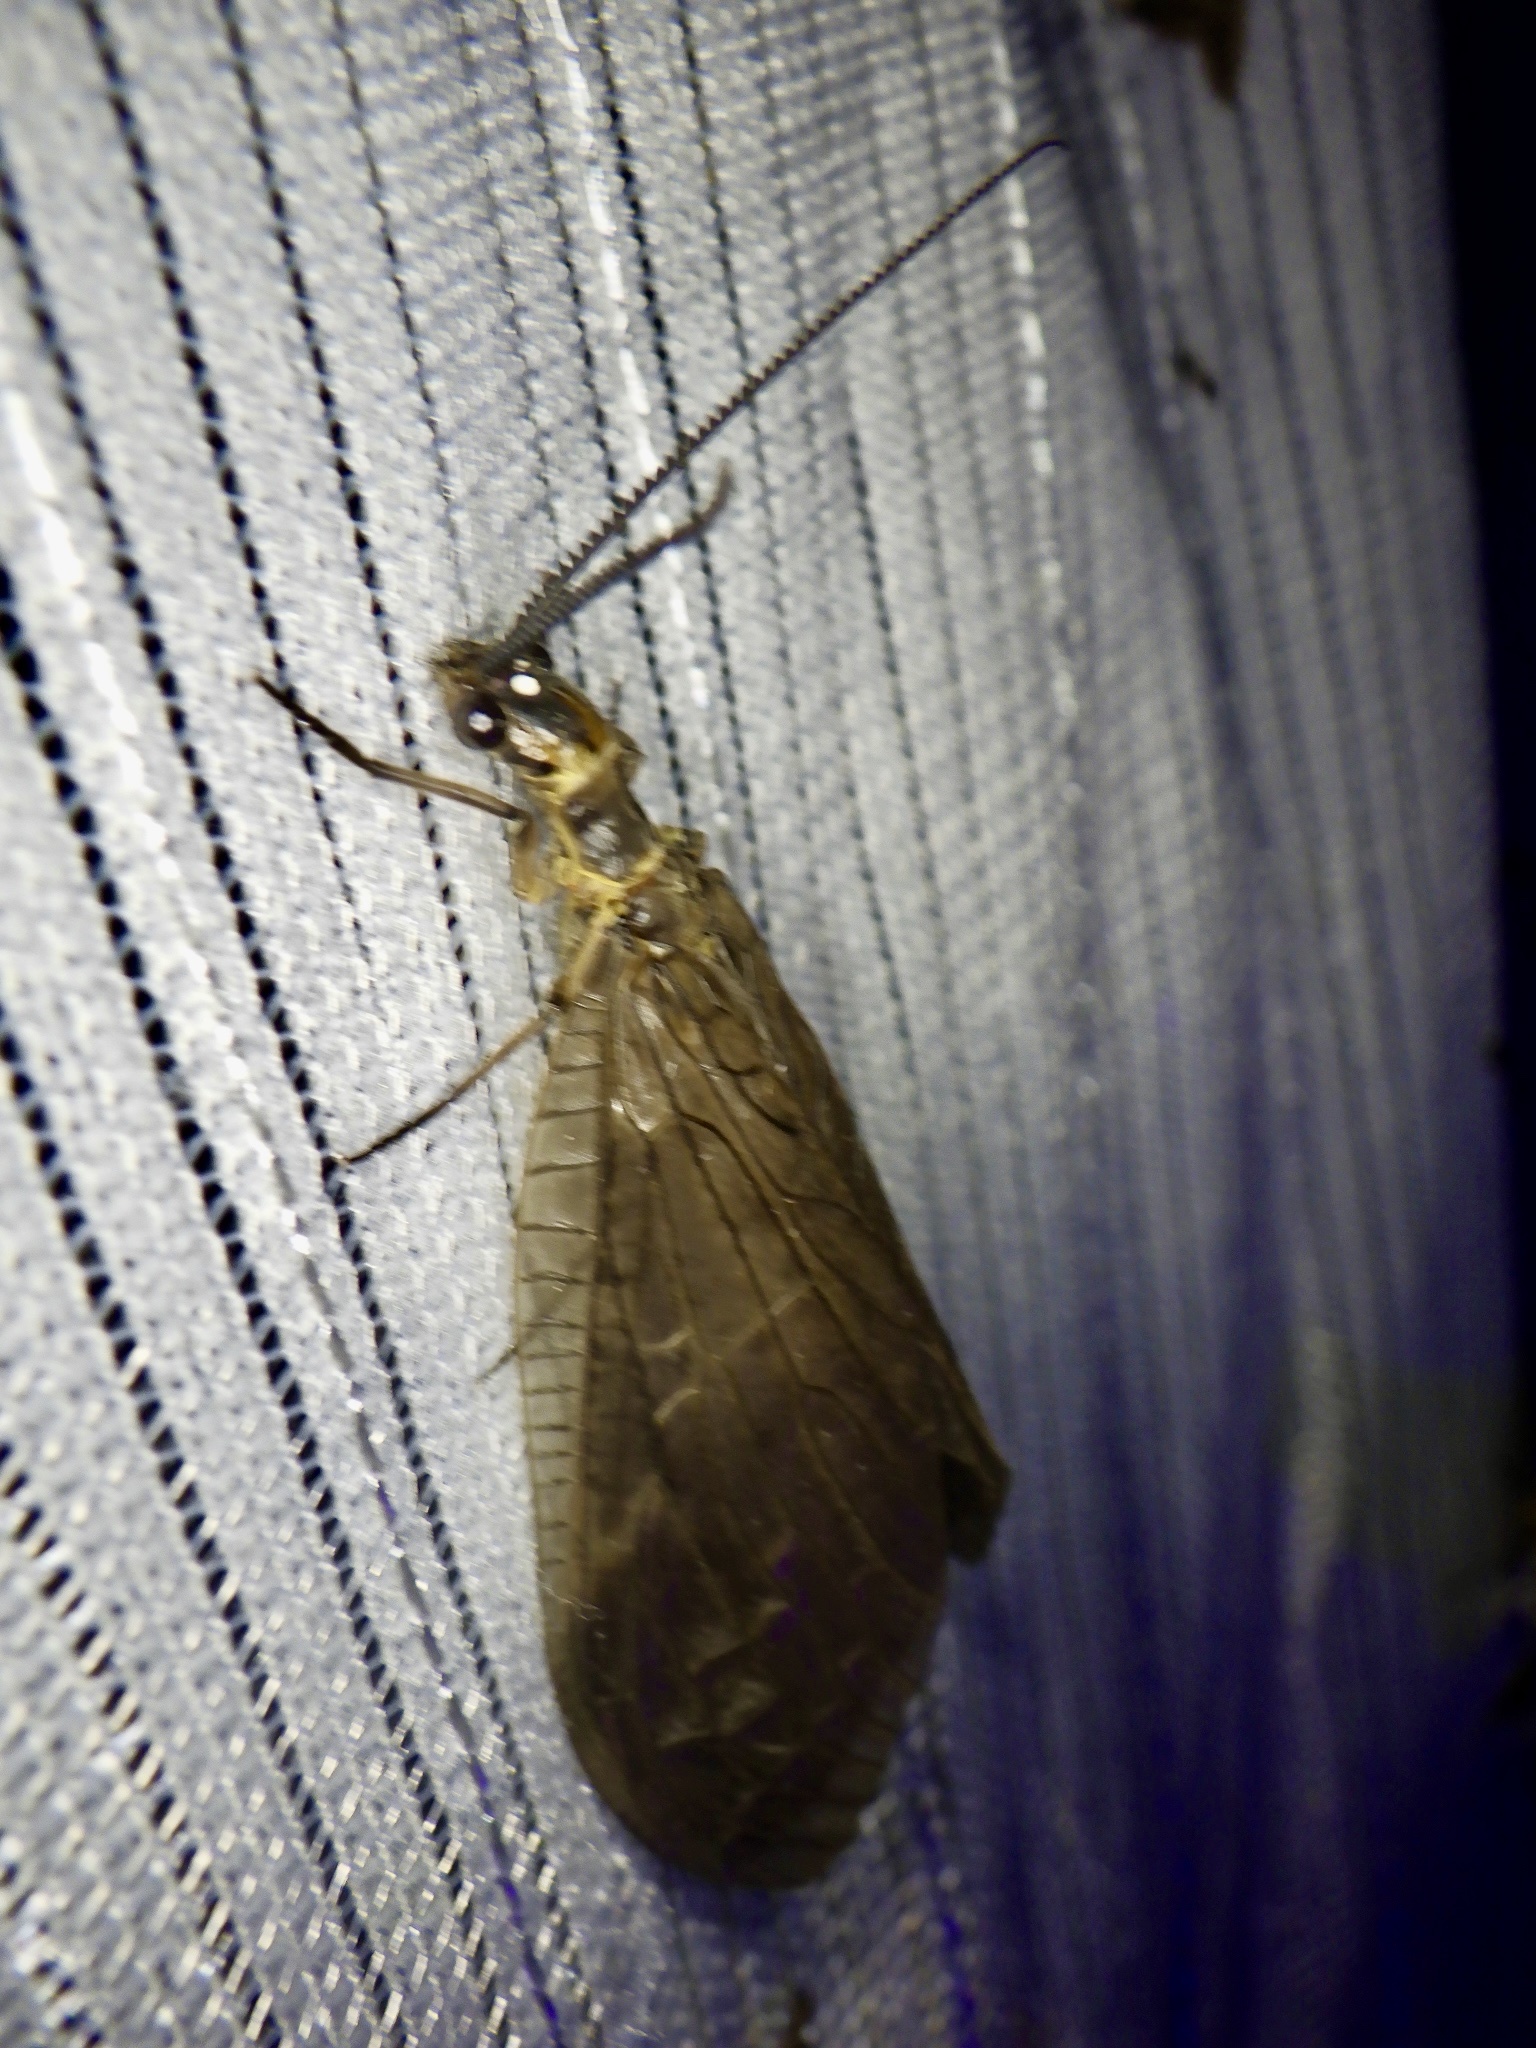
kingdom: Animalia
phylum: Arthropoda
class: Insecta
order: Megaloptera
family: Corydalidae
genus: Parachauliodes
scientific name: Parachauliodes japonicus
